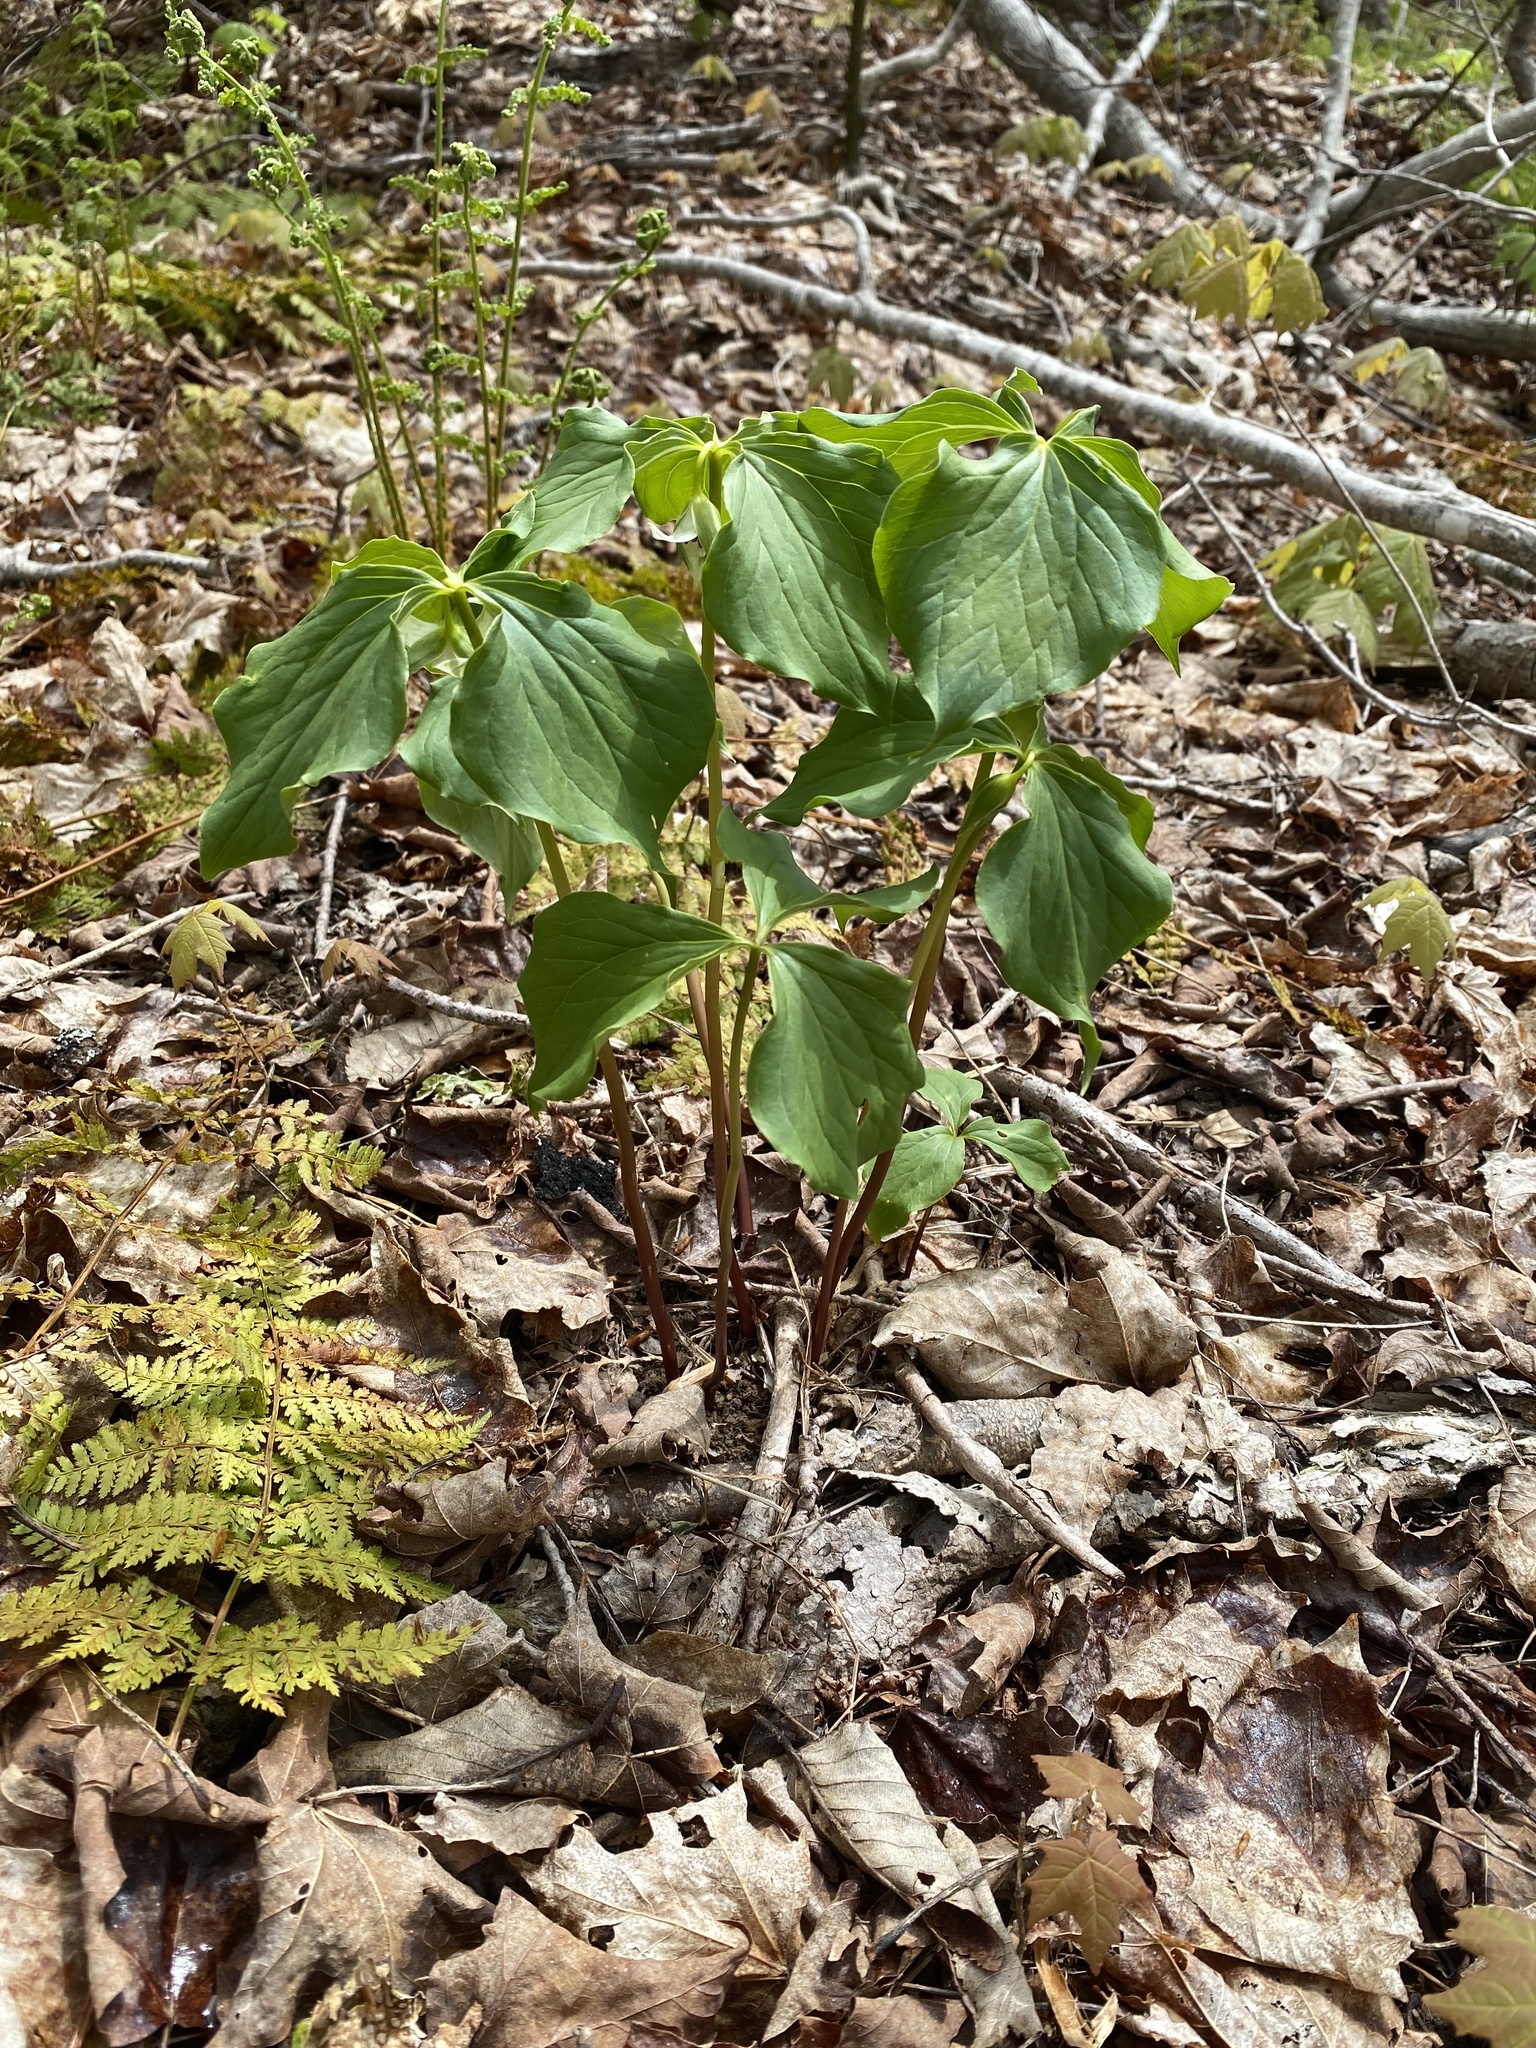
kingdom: Plantae
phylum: Tracheophyta
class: Liliopsida
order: Liliales
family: Melanthiaceae
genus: Trillium
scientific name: Trillium cernuum
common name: Nodding trillium
